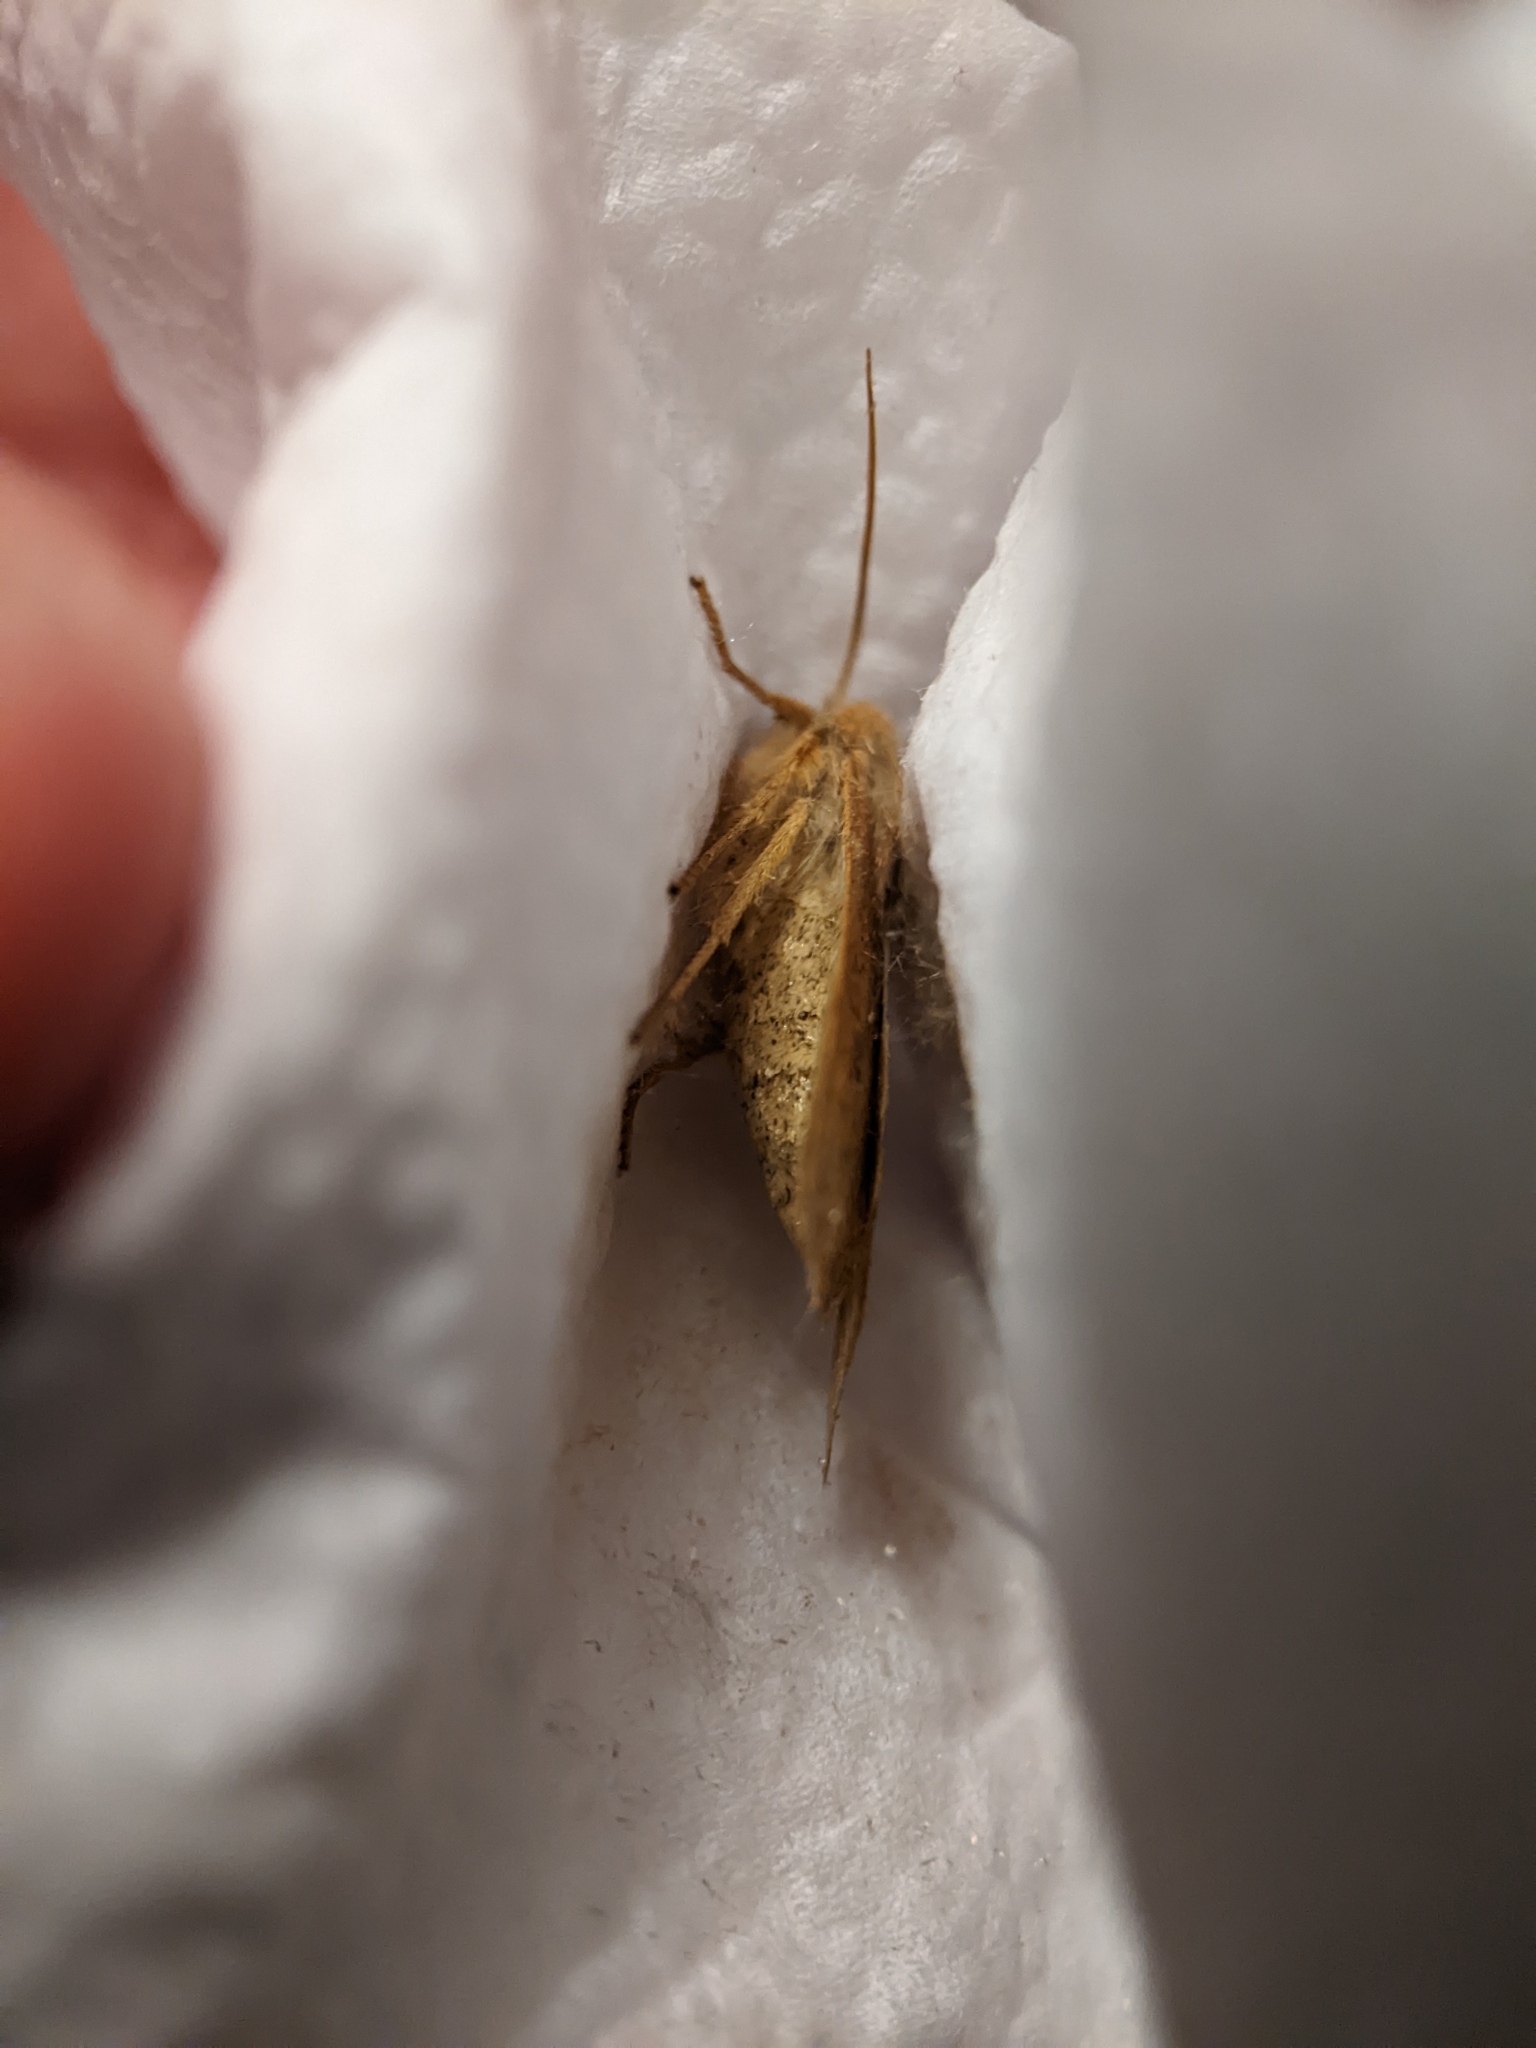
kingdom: Animalia
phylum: Arthropoda
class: Insecta
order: Lepidoptera
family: Noctuidae
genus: Sunira
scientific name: Sunira circellaris
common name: Brick
